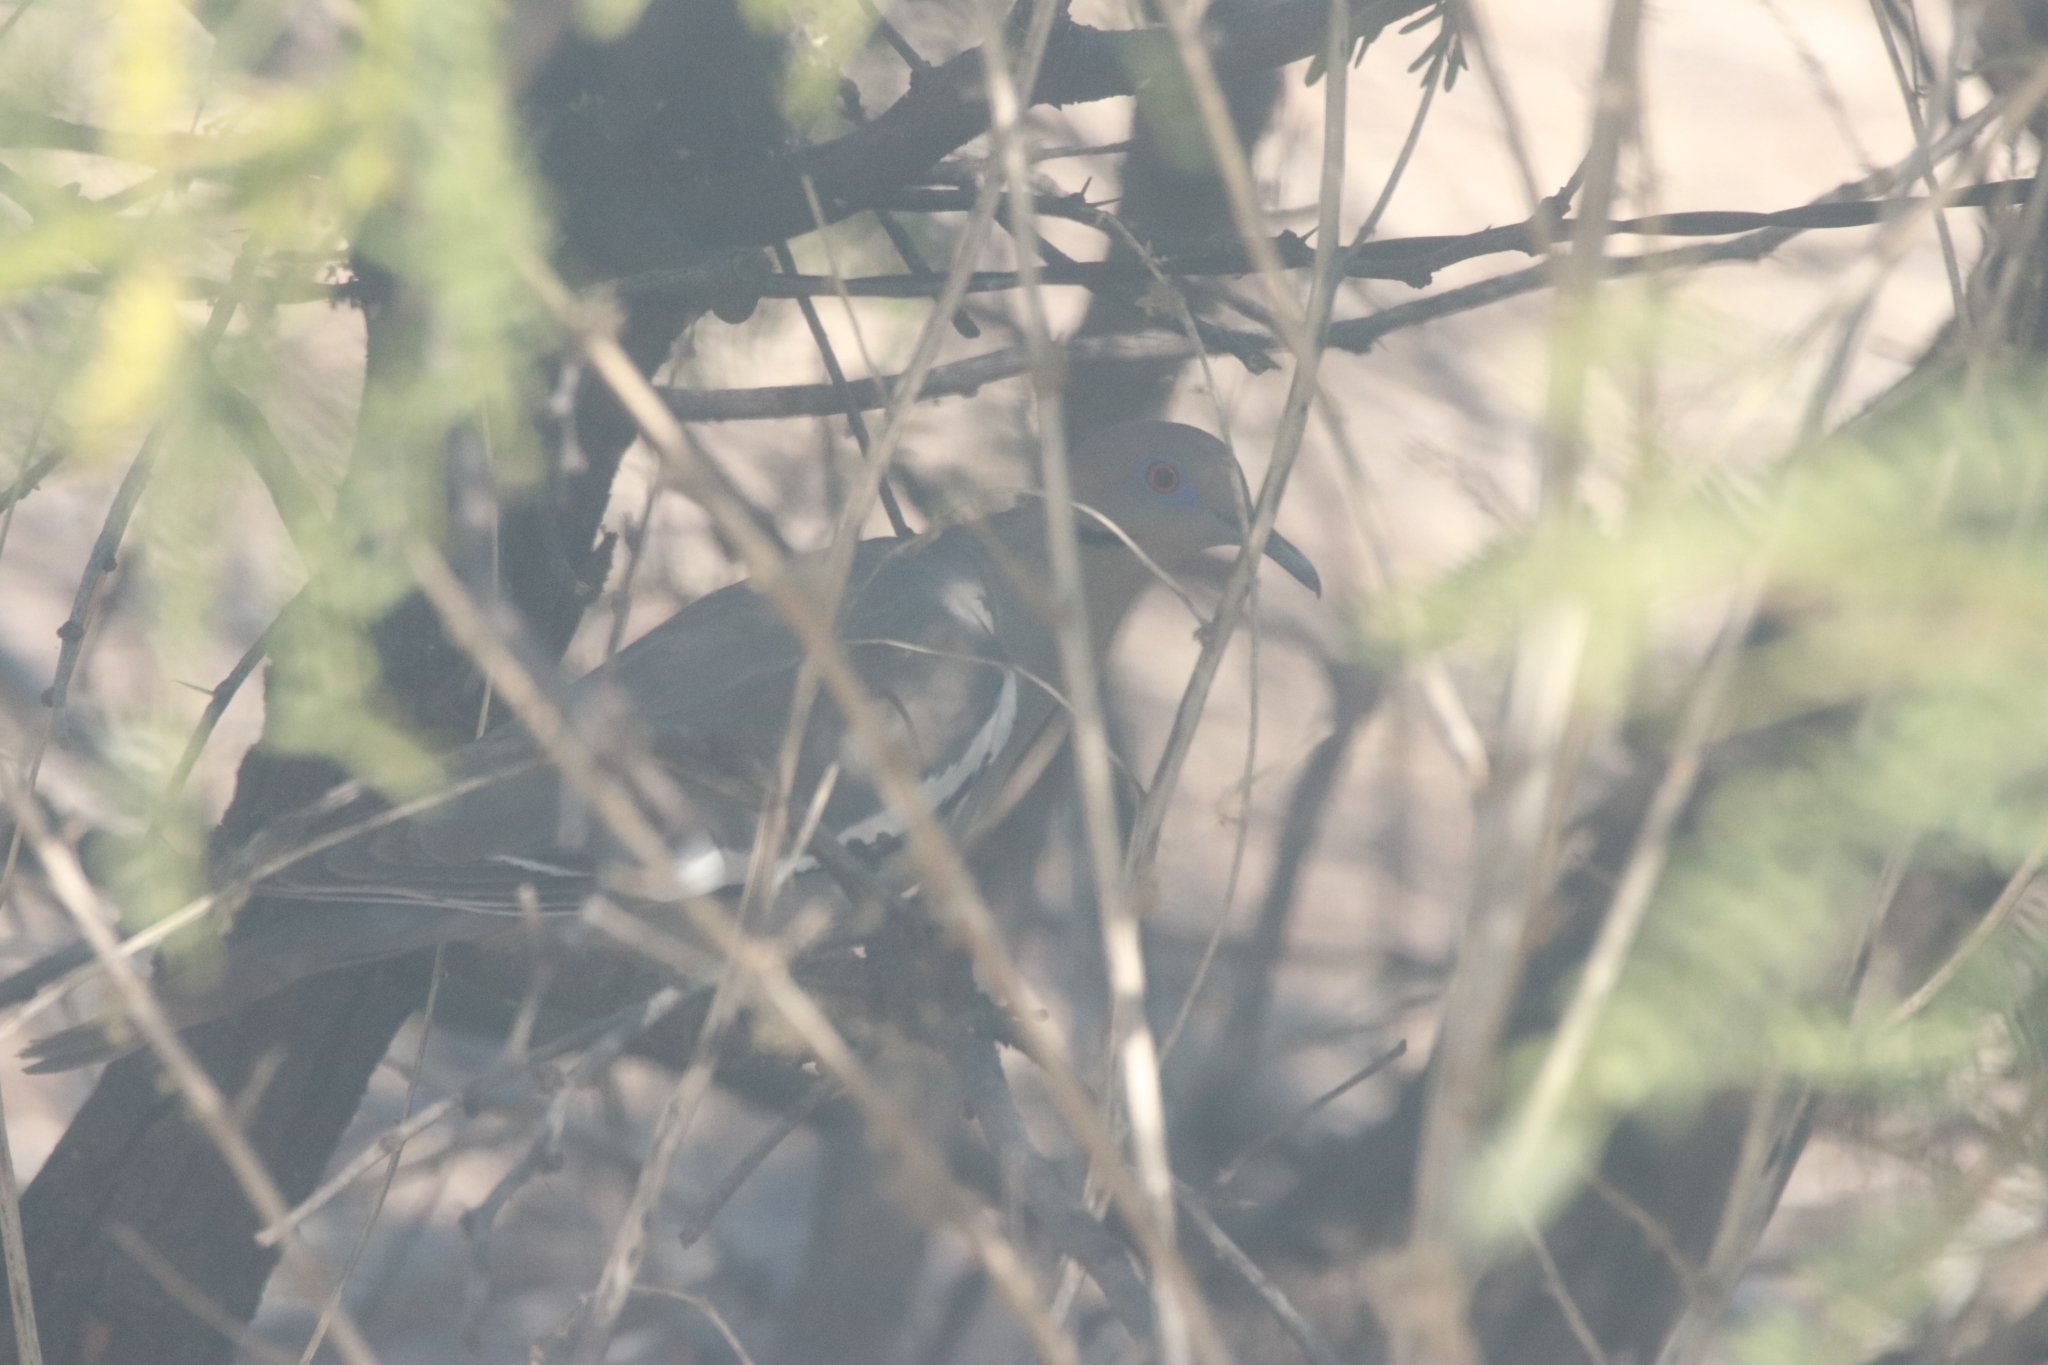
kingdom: Animalia
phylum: Chordata
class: Aves
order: Columbiformes
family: Columbidae
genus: Zenaida
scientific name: Zenaida asiatica
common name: White-winged dove
